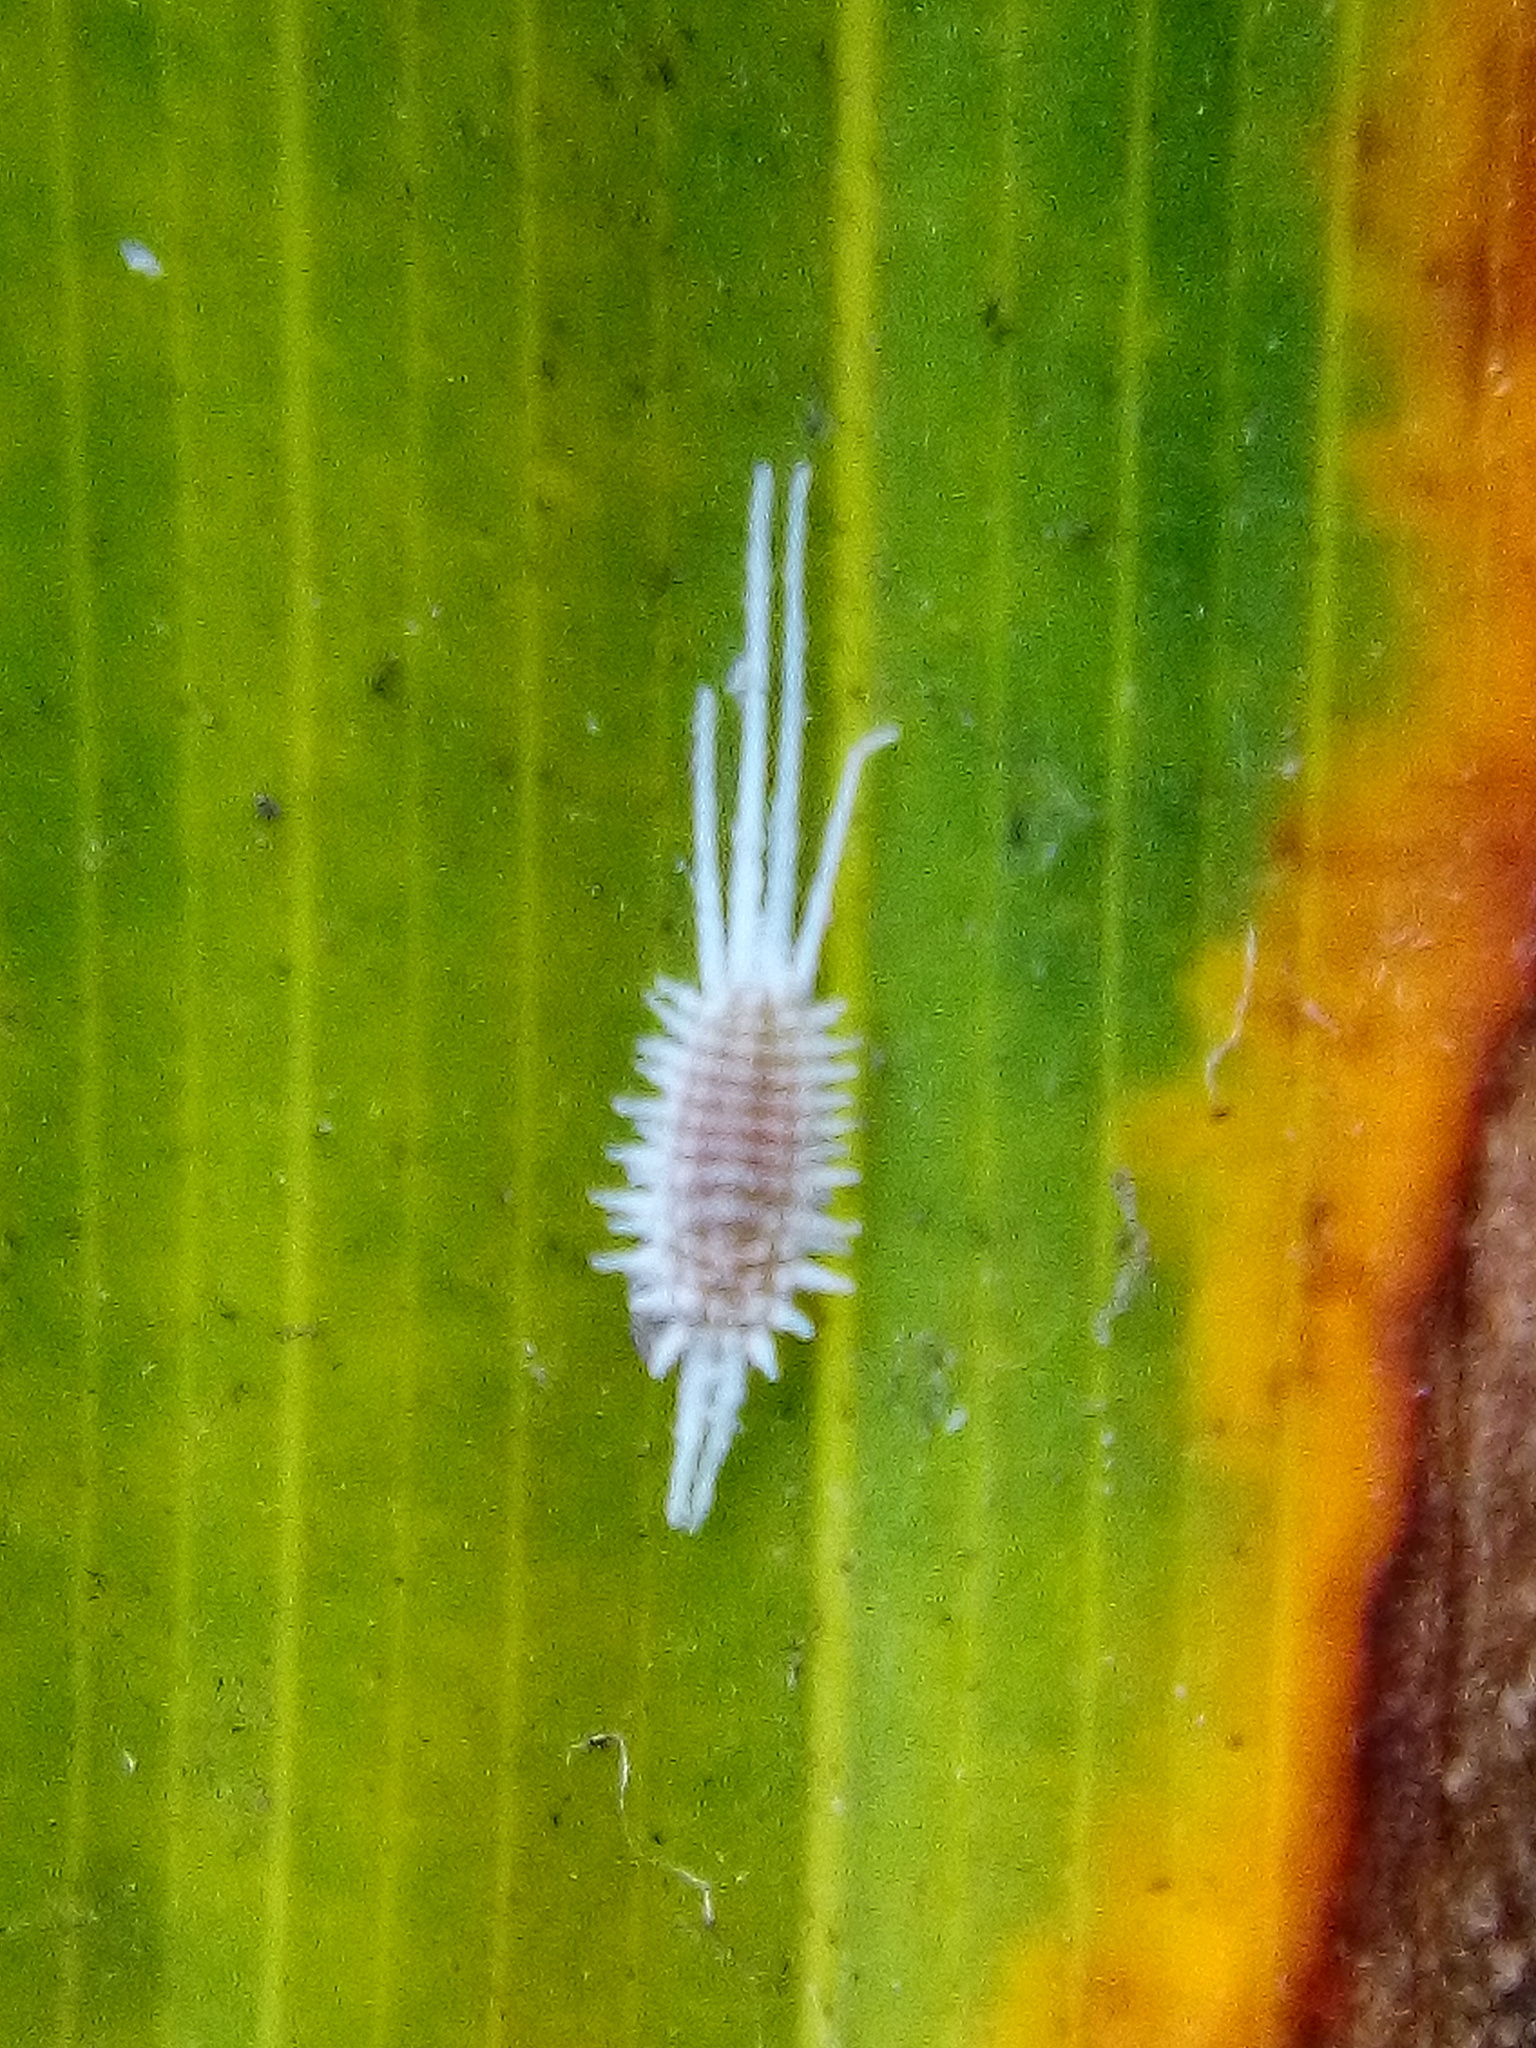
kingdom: Animalia
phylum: Arthropoda
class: Insecta
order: Hemiptera
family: Pseudococcidae
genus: Laminicoccus
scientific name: Laminicoccus flandersi
